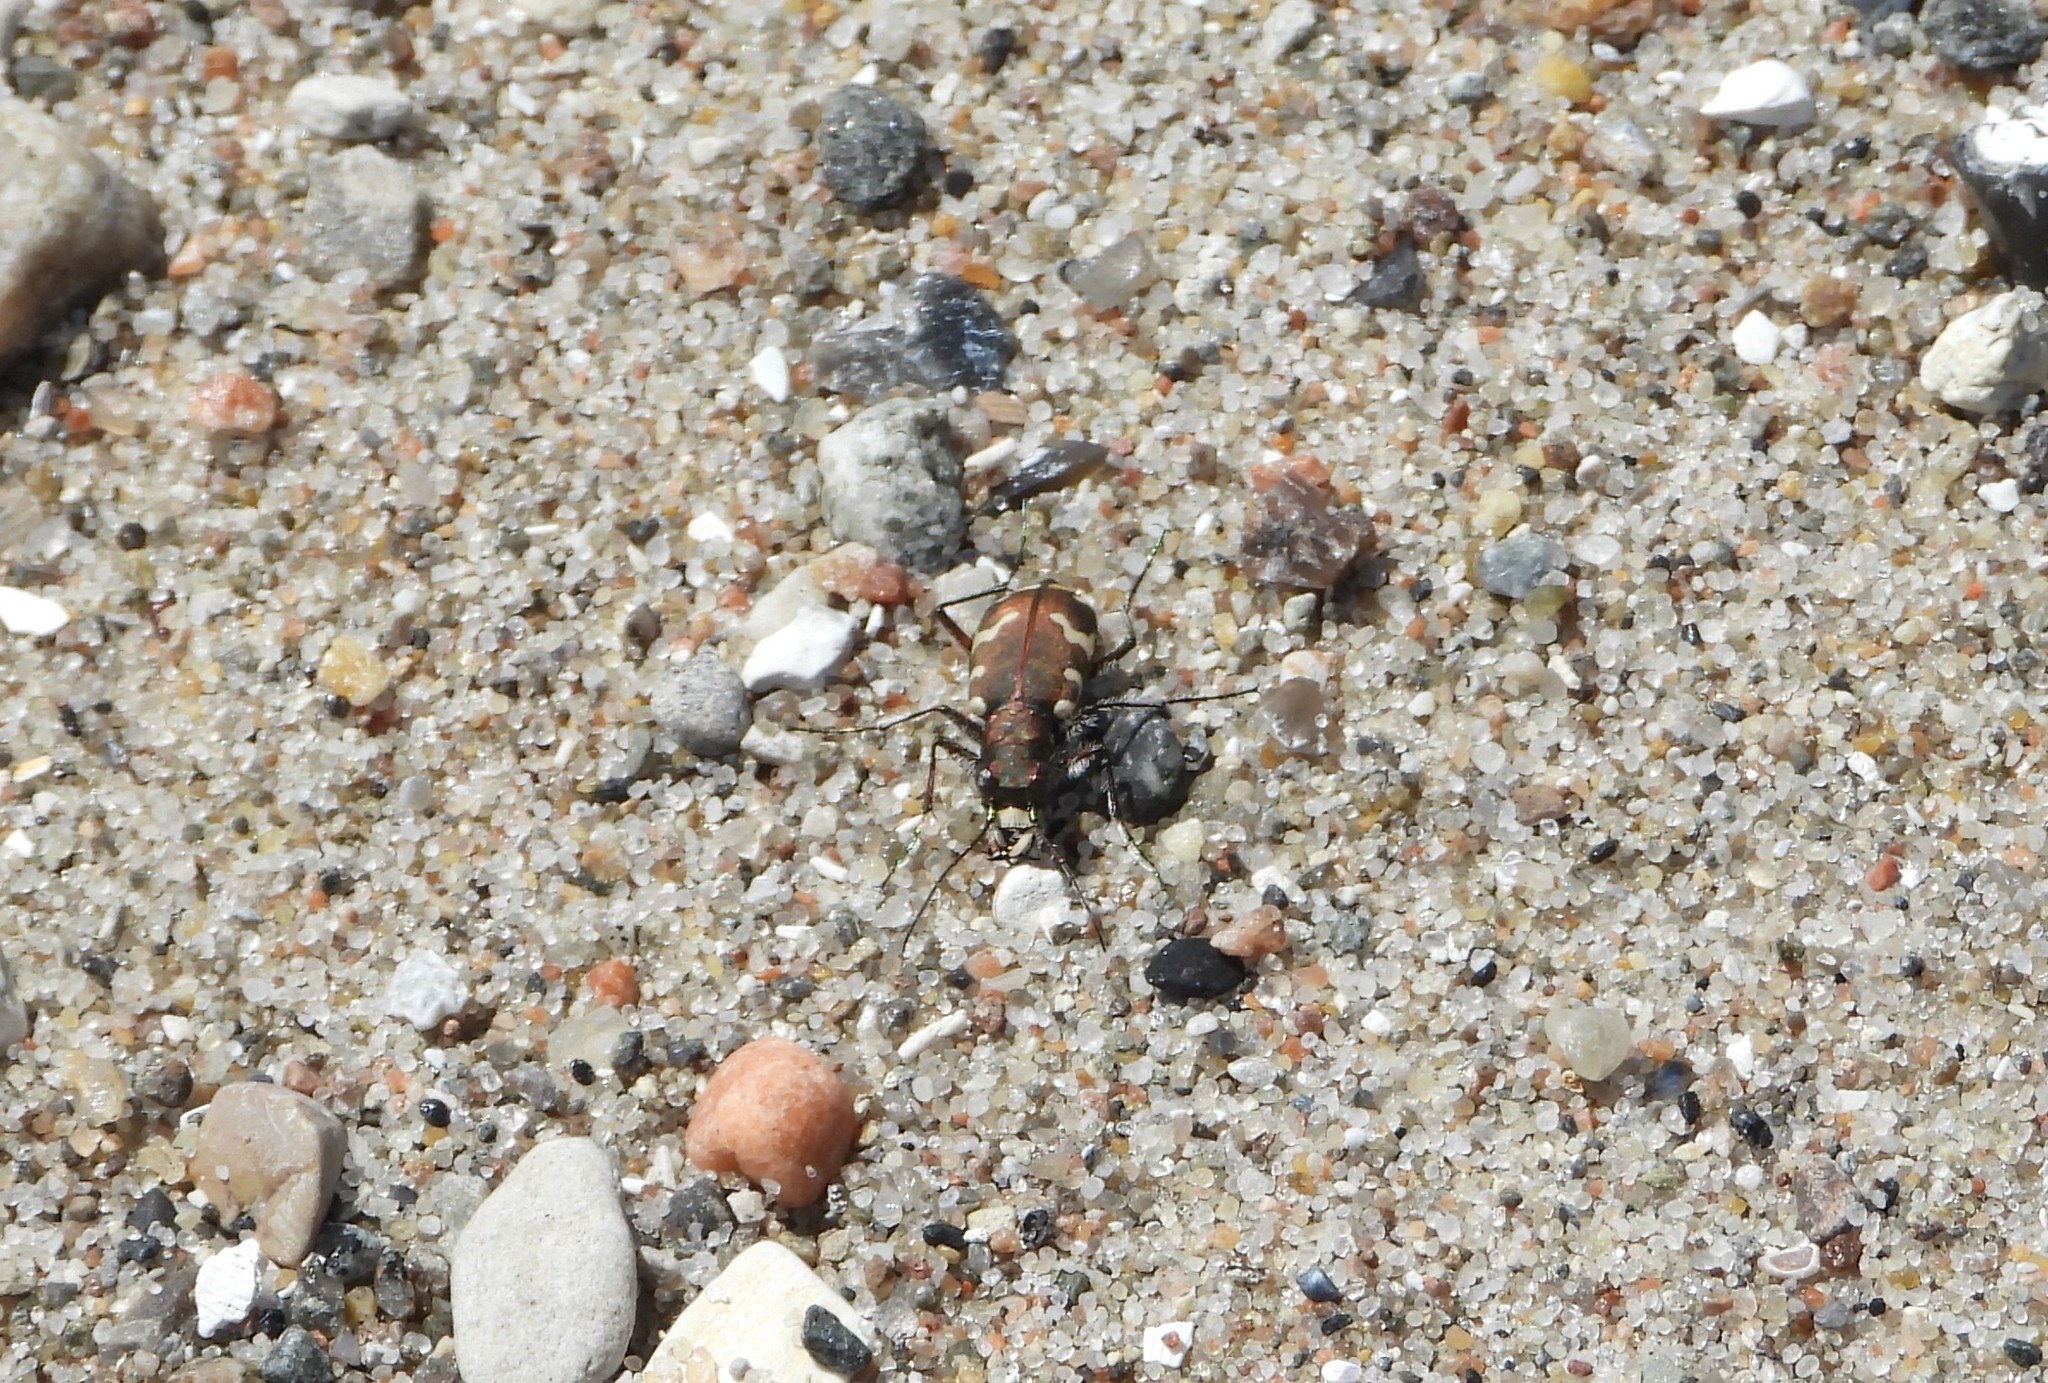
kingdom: Animalia
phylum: Arthropoda
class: Insecta
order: Coleoptera
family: Carabidae
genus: Cicindela
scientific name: Cicindela hybrida
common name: Northern dune tiger beetle
